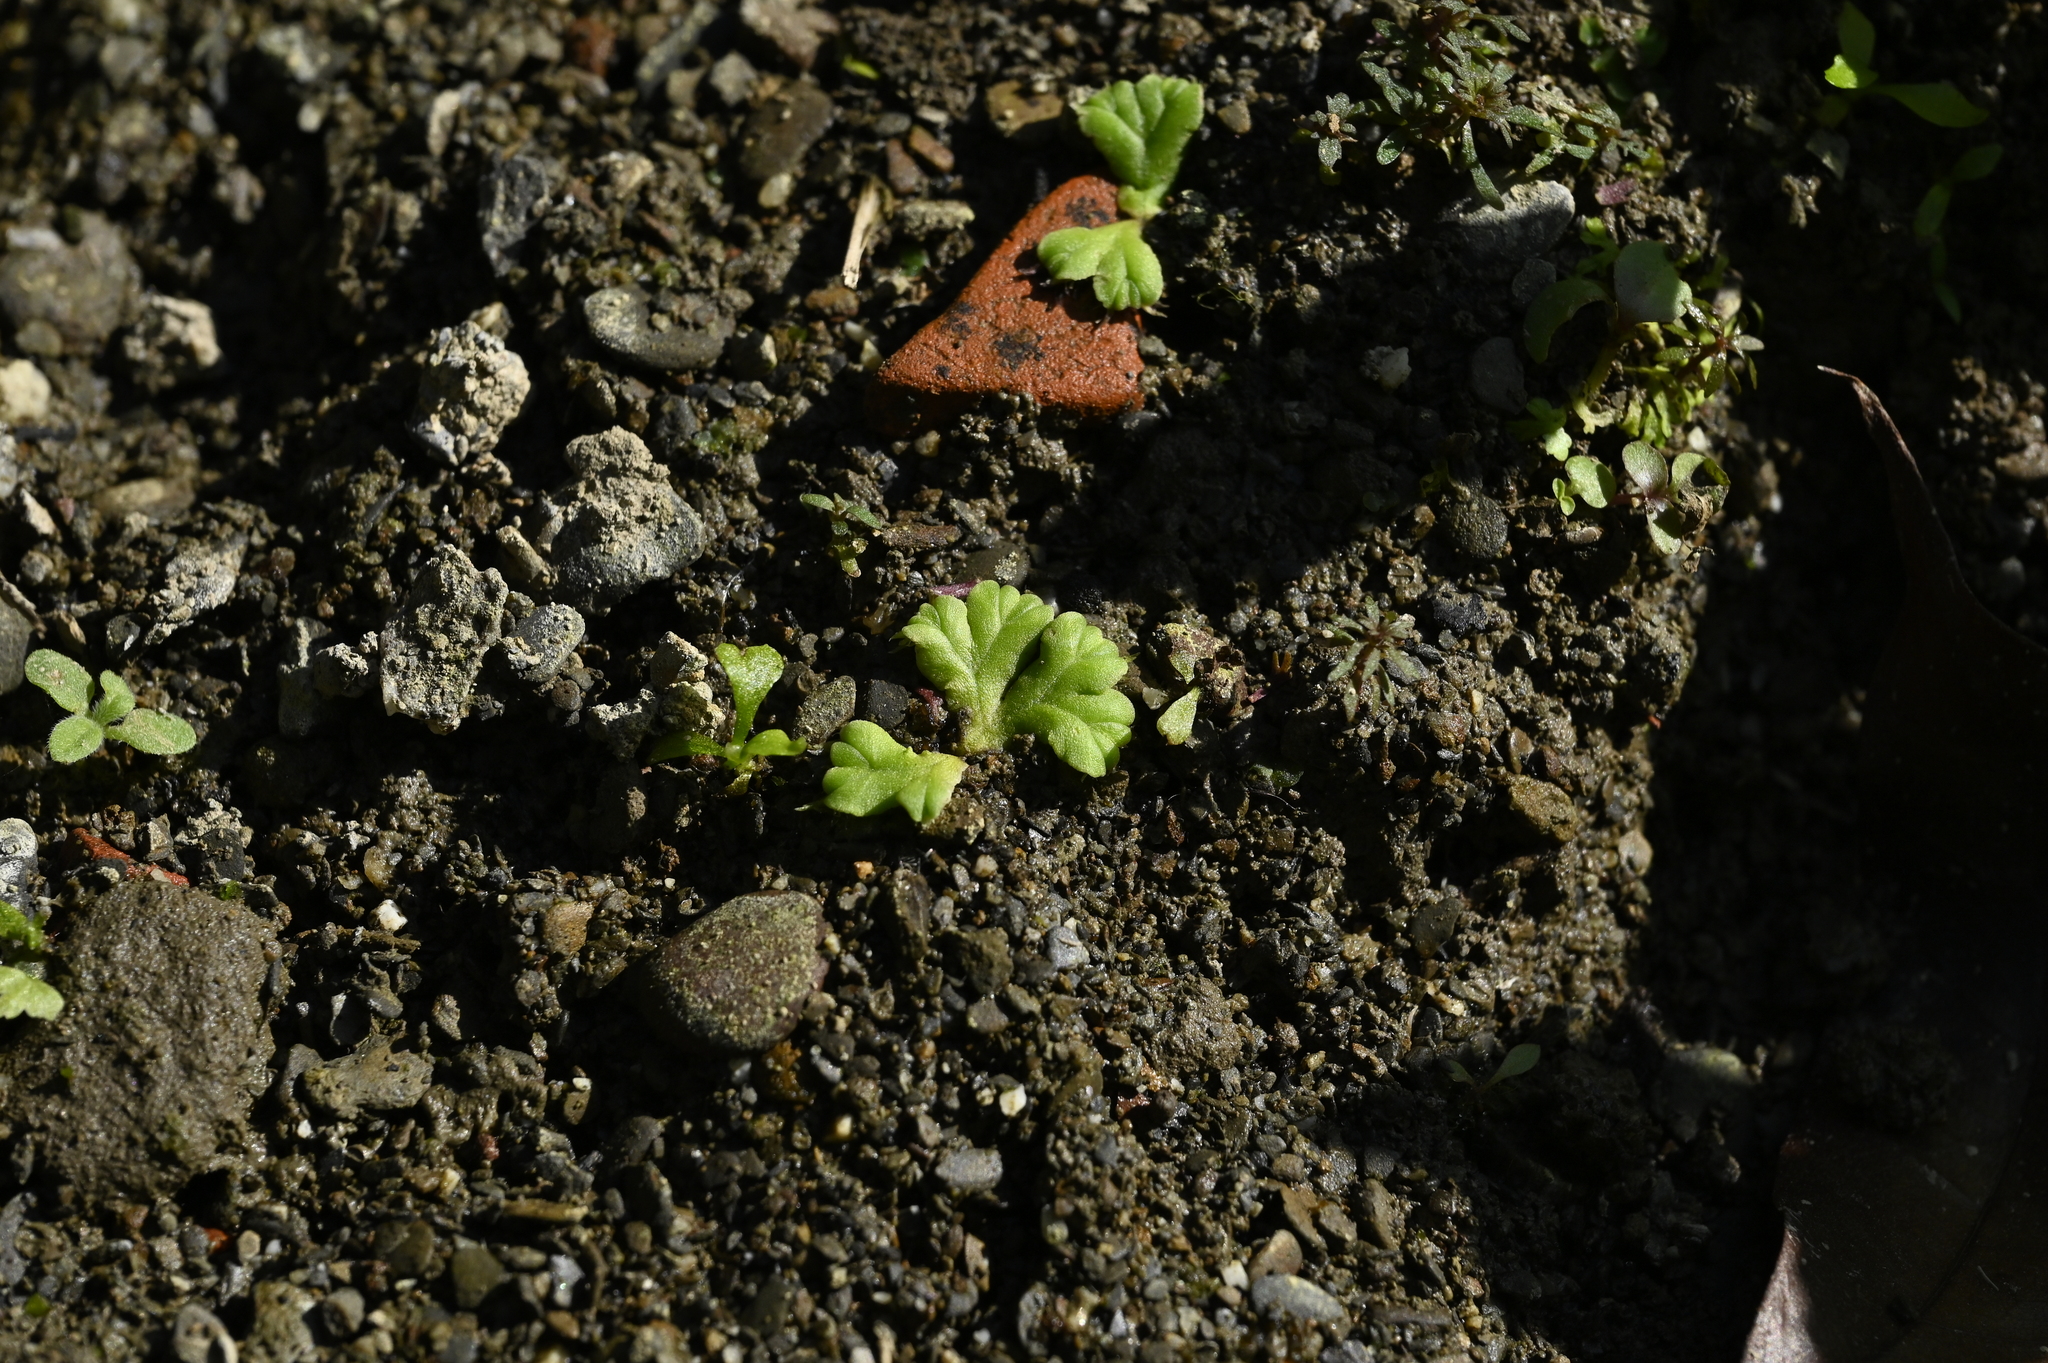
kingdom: Plantae
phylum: Marchantiophyta
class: Marchantiopsida
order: Marchantiales
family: Ricciaceae
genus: Ricciocarpos
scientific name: Ricciocarpos natans
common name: Purple-fringed liverwort
